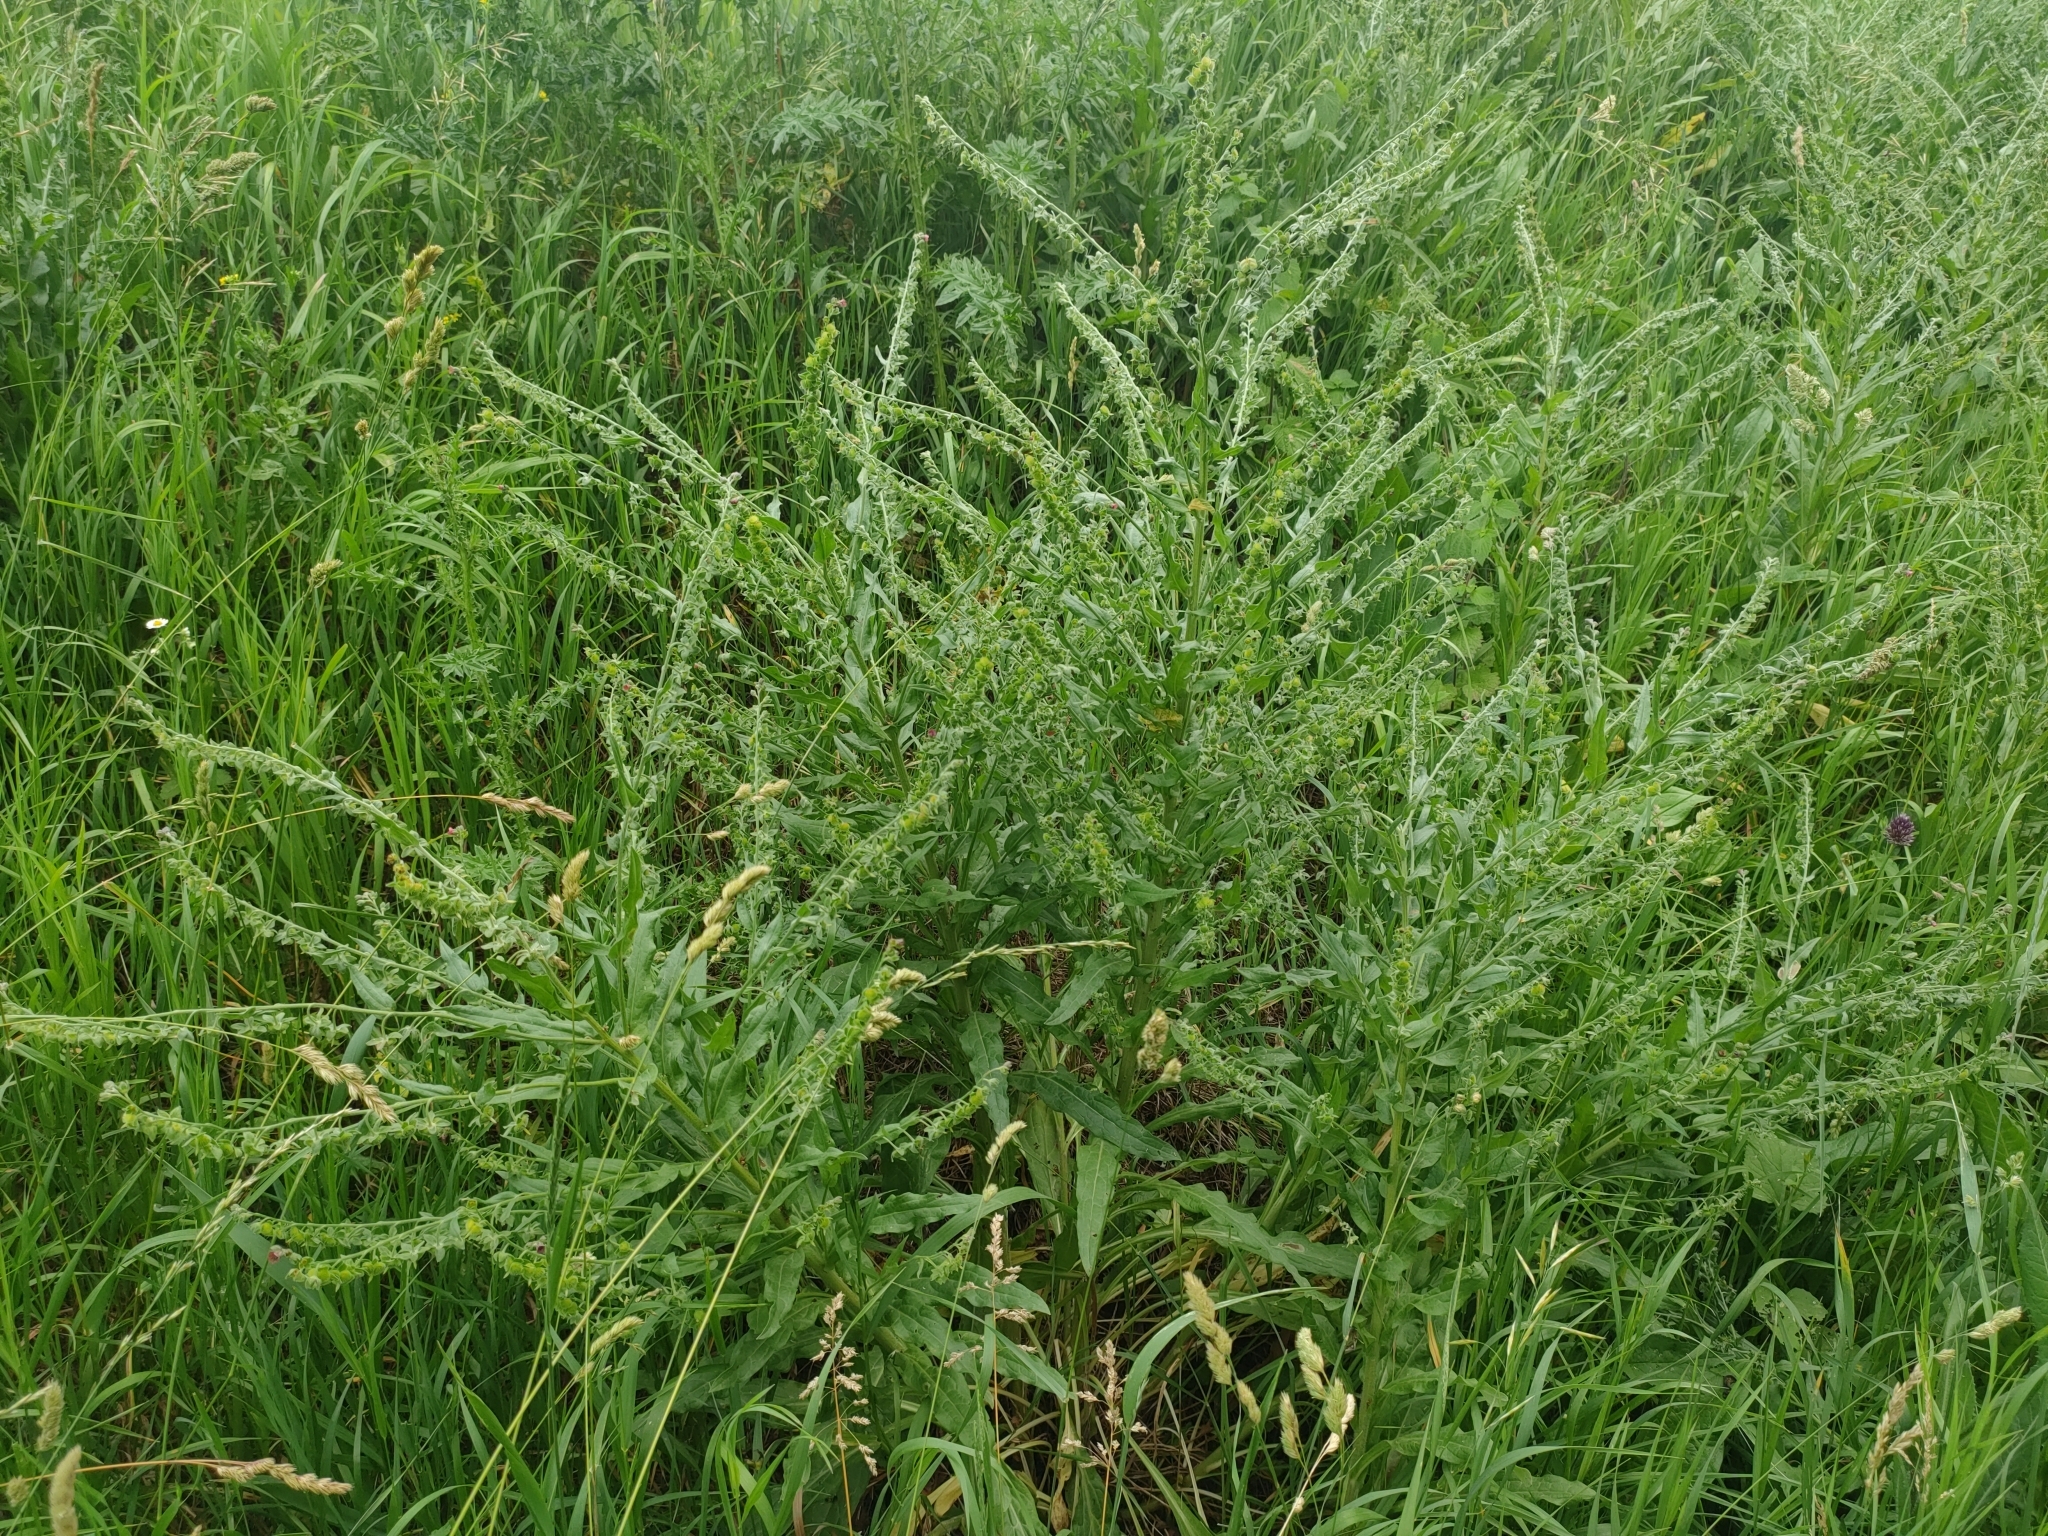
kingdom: Plantae
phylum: Tracheophyta
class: Magnoliopsida
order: Boraginales
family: Boraginaceae
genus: Cynoglossum
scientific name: Cynoglossum officinale
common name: Hound's-tongue
